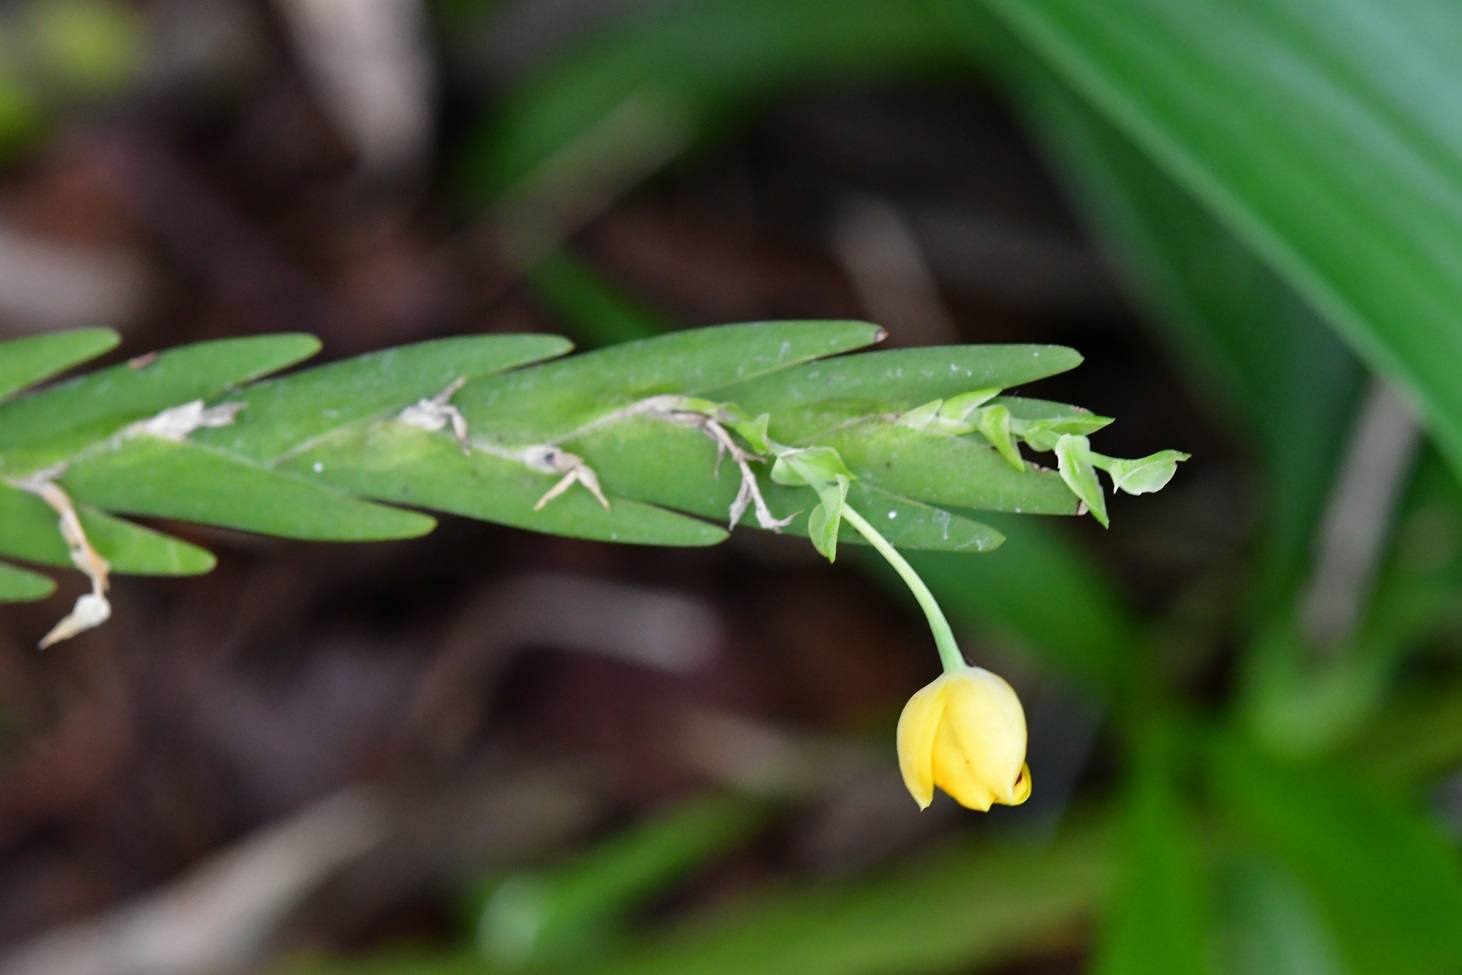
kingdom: Plantae
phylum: Tracheophyta
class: Liliopsida
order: Asparagales
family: Orchidaceae
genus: Lockhartia
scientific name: Lockhartia oerstedii
